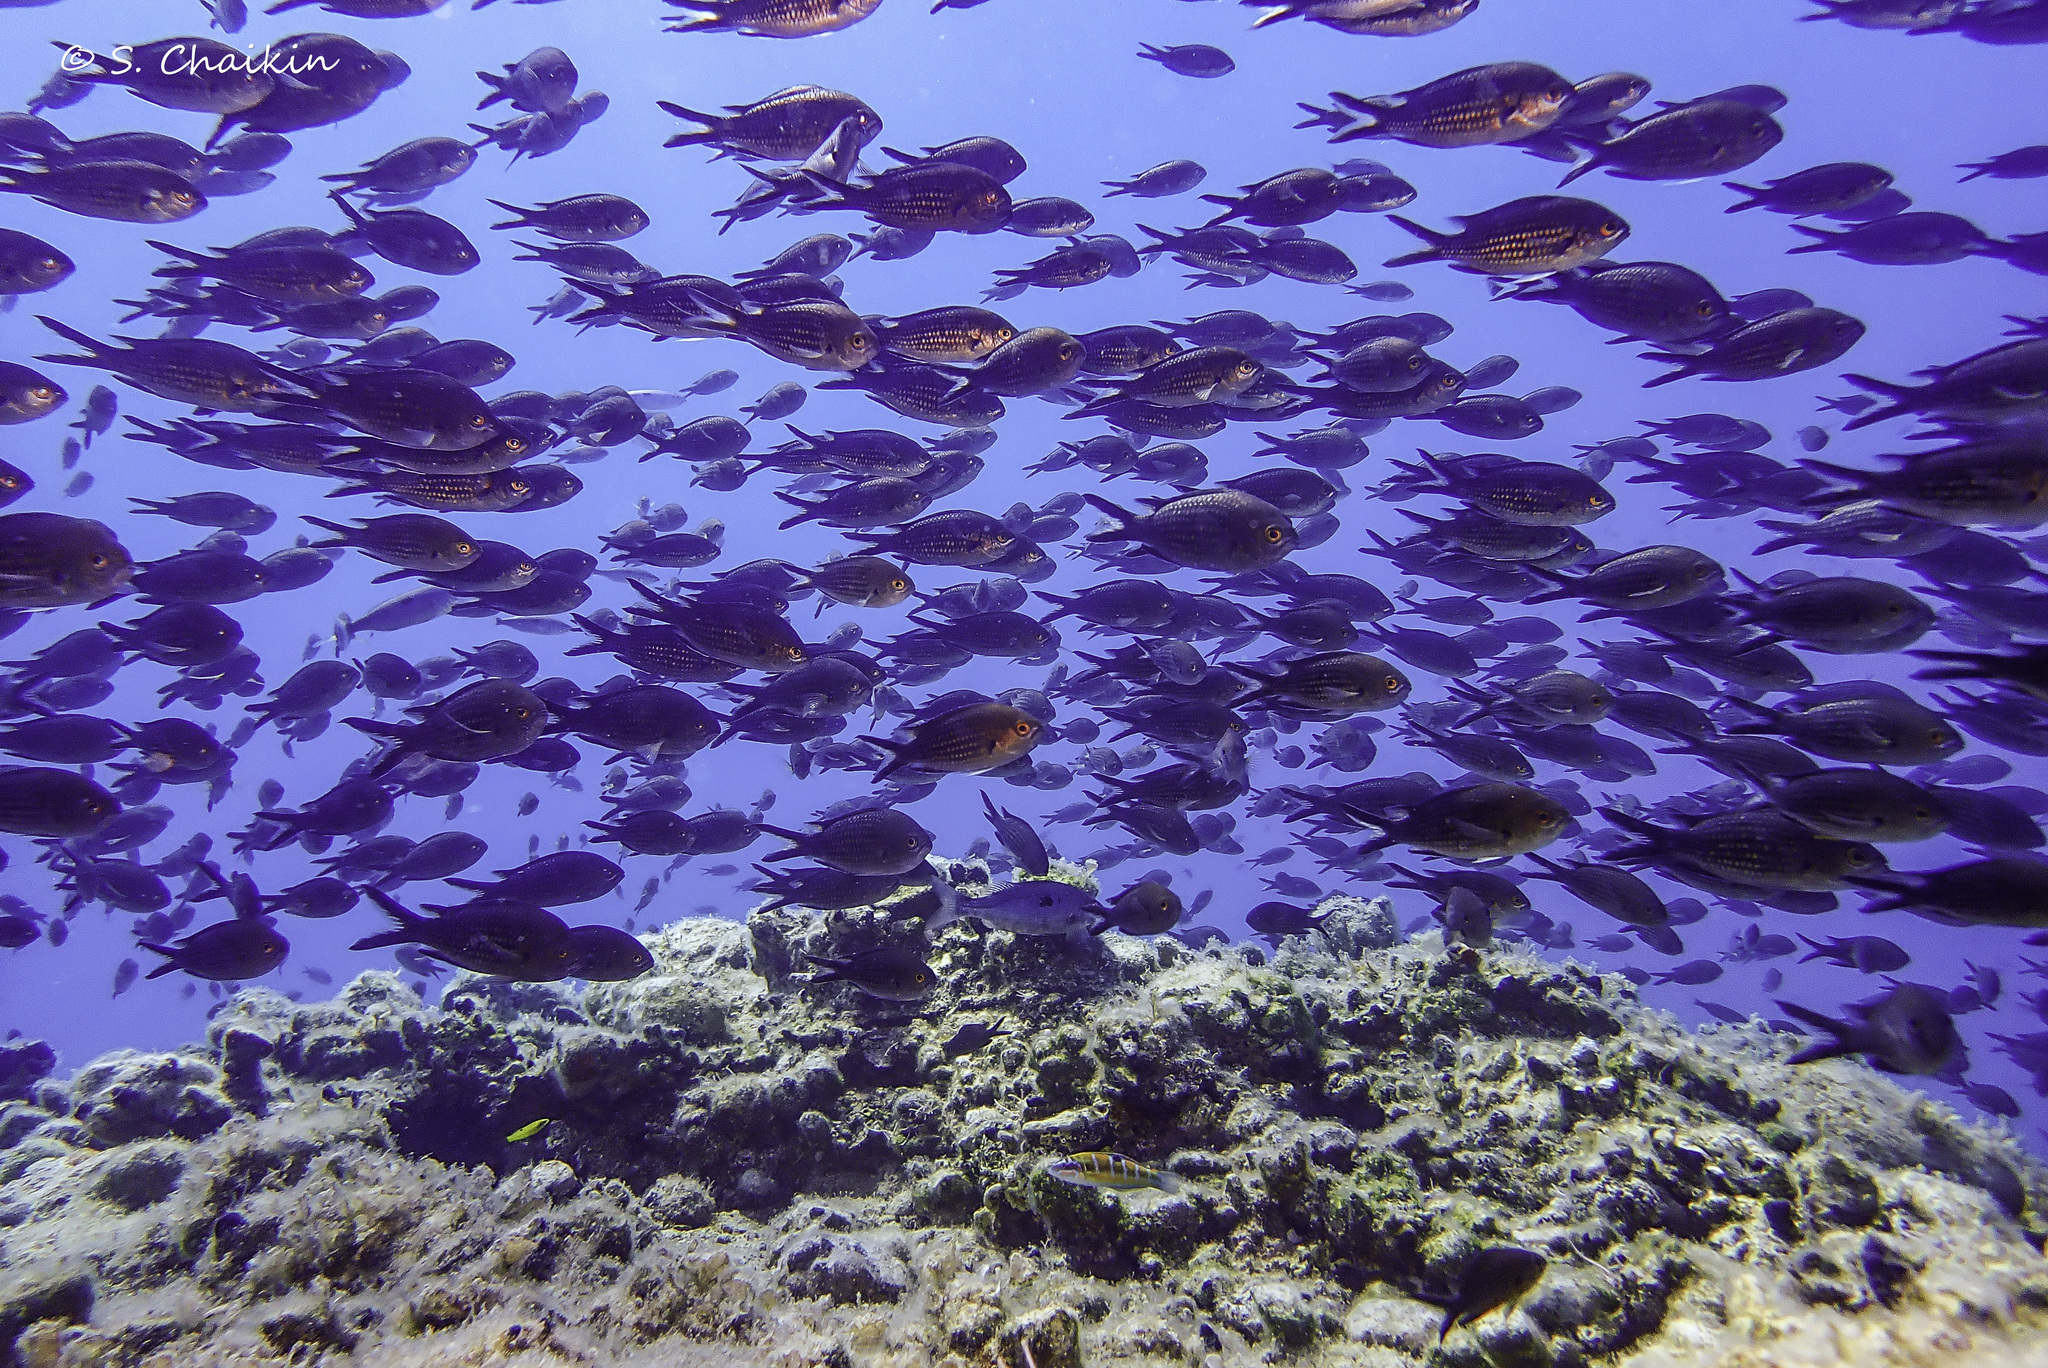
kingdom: Animalia
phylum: Chordata
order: Perciformes
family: Pomacentridae
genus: Chromis
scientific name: Chromis chromis
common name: Damselfish
